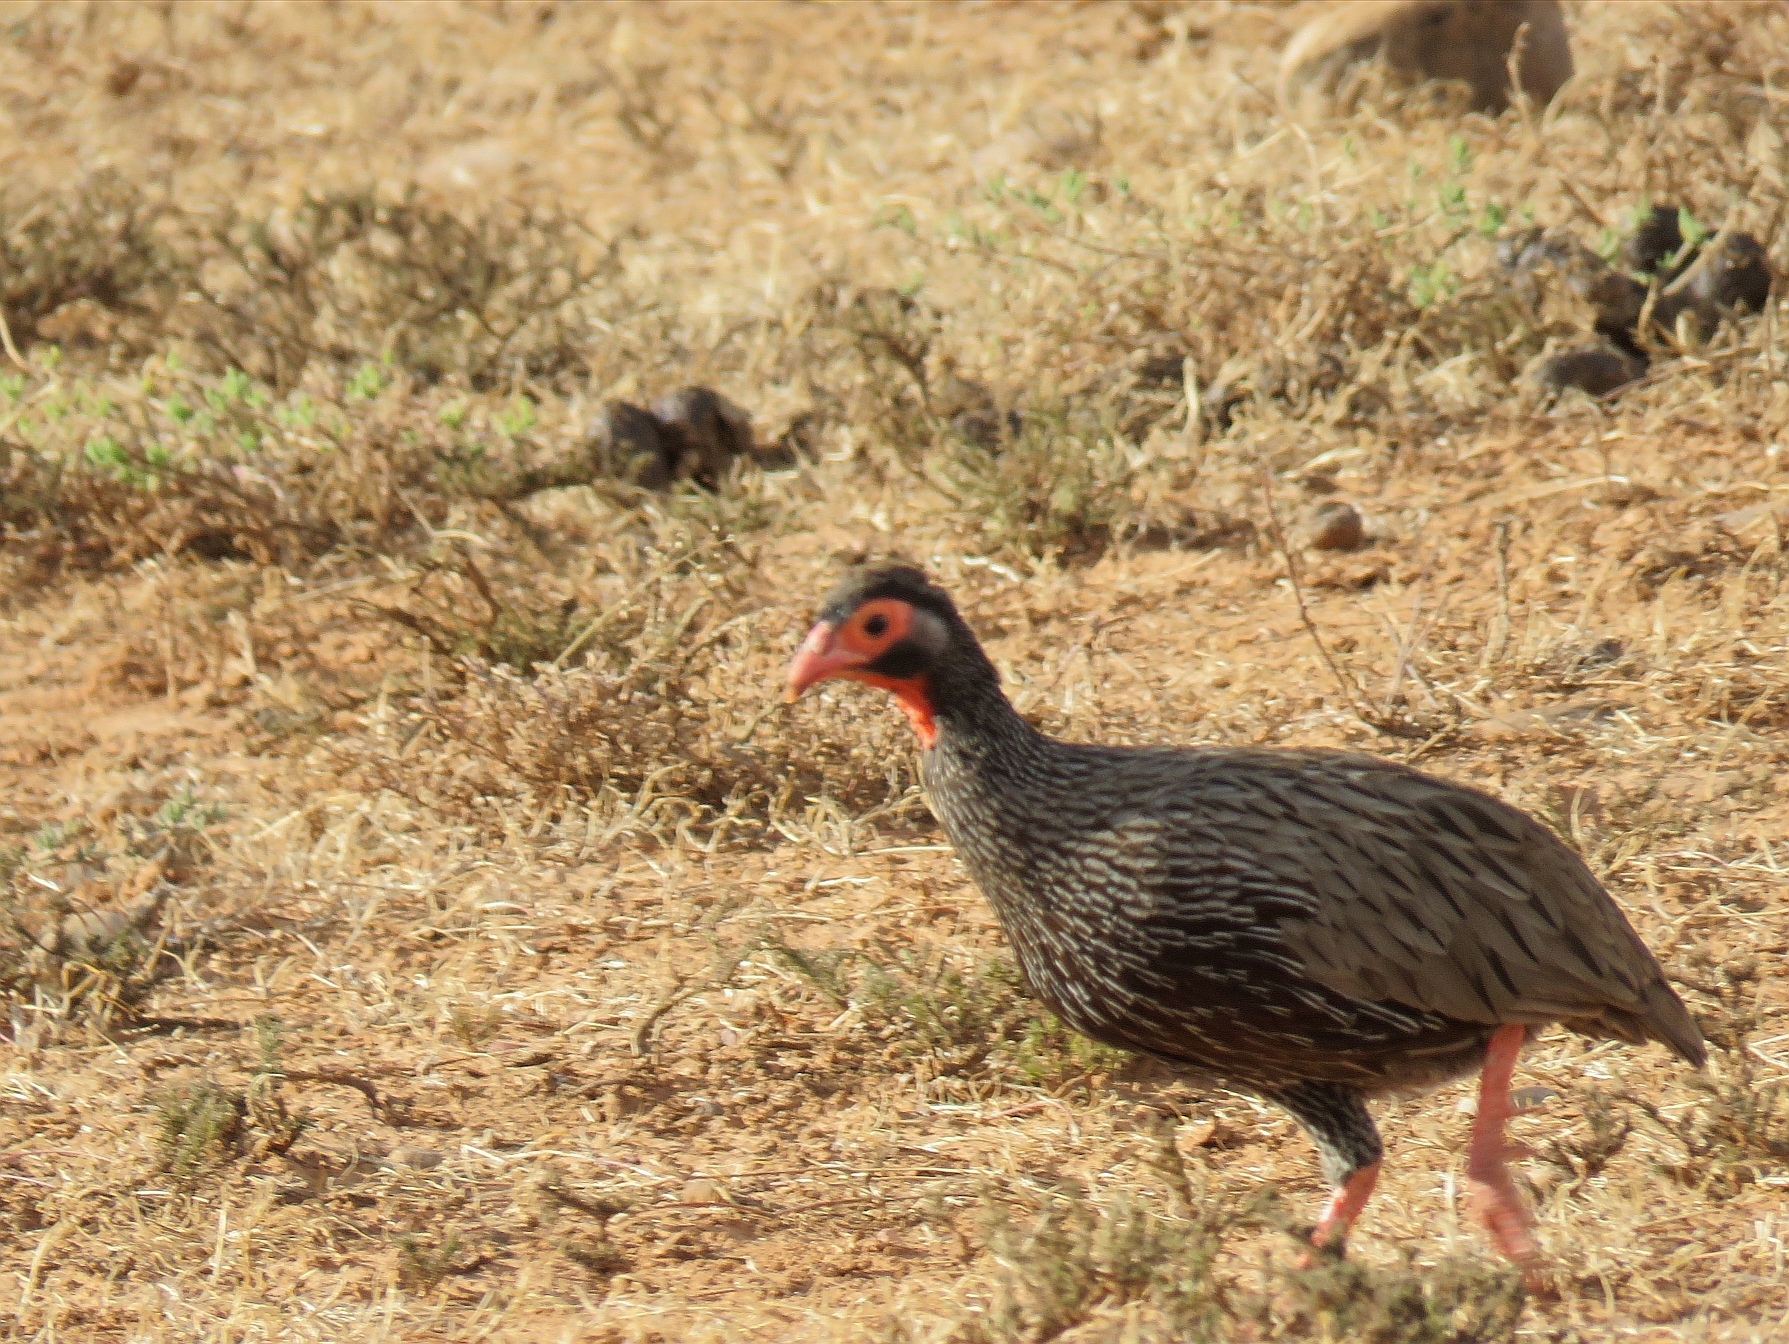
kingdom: Animalia
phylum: Chordata
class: Aves
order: Galliformes
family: Phasianidae
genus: Pternistis
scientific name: Pternistis afer
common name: Red-necked spurfowl
